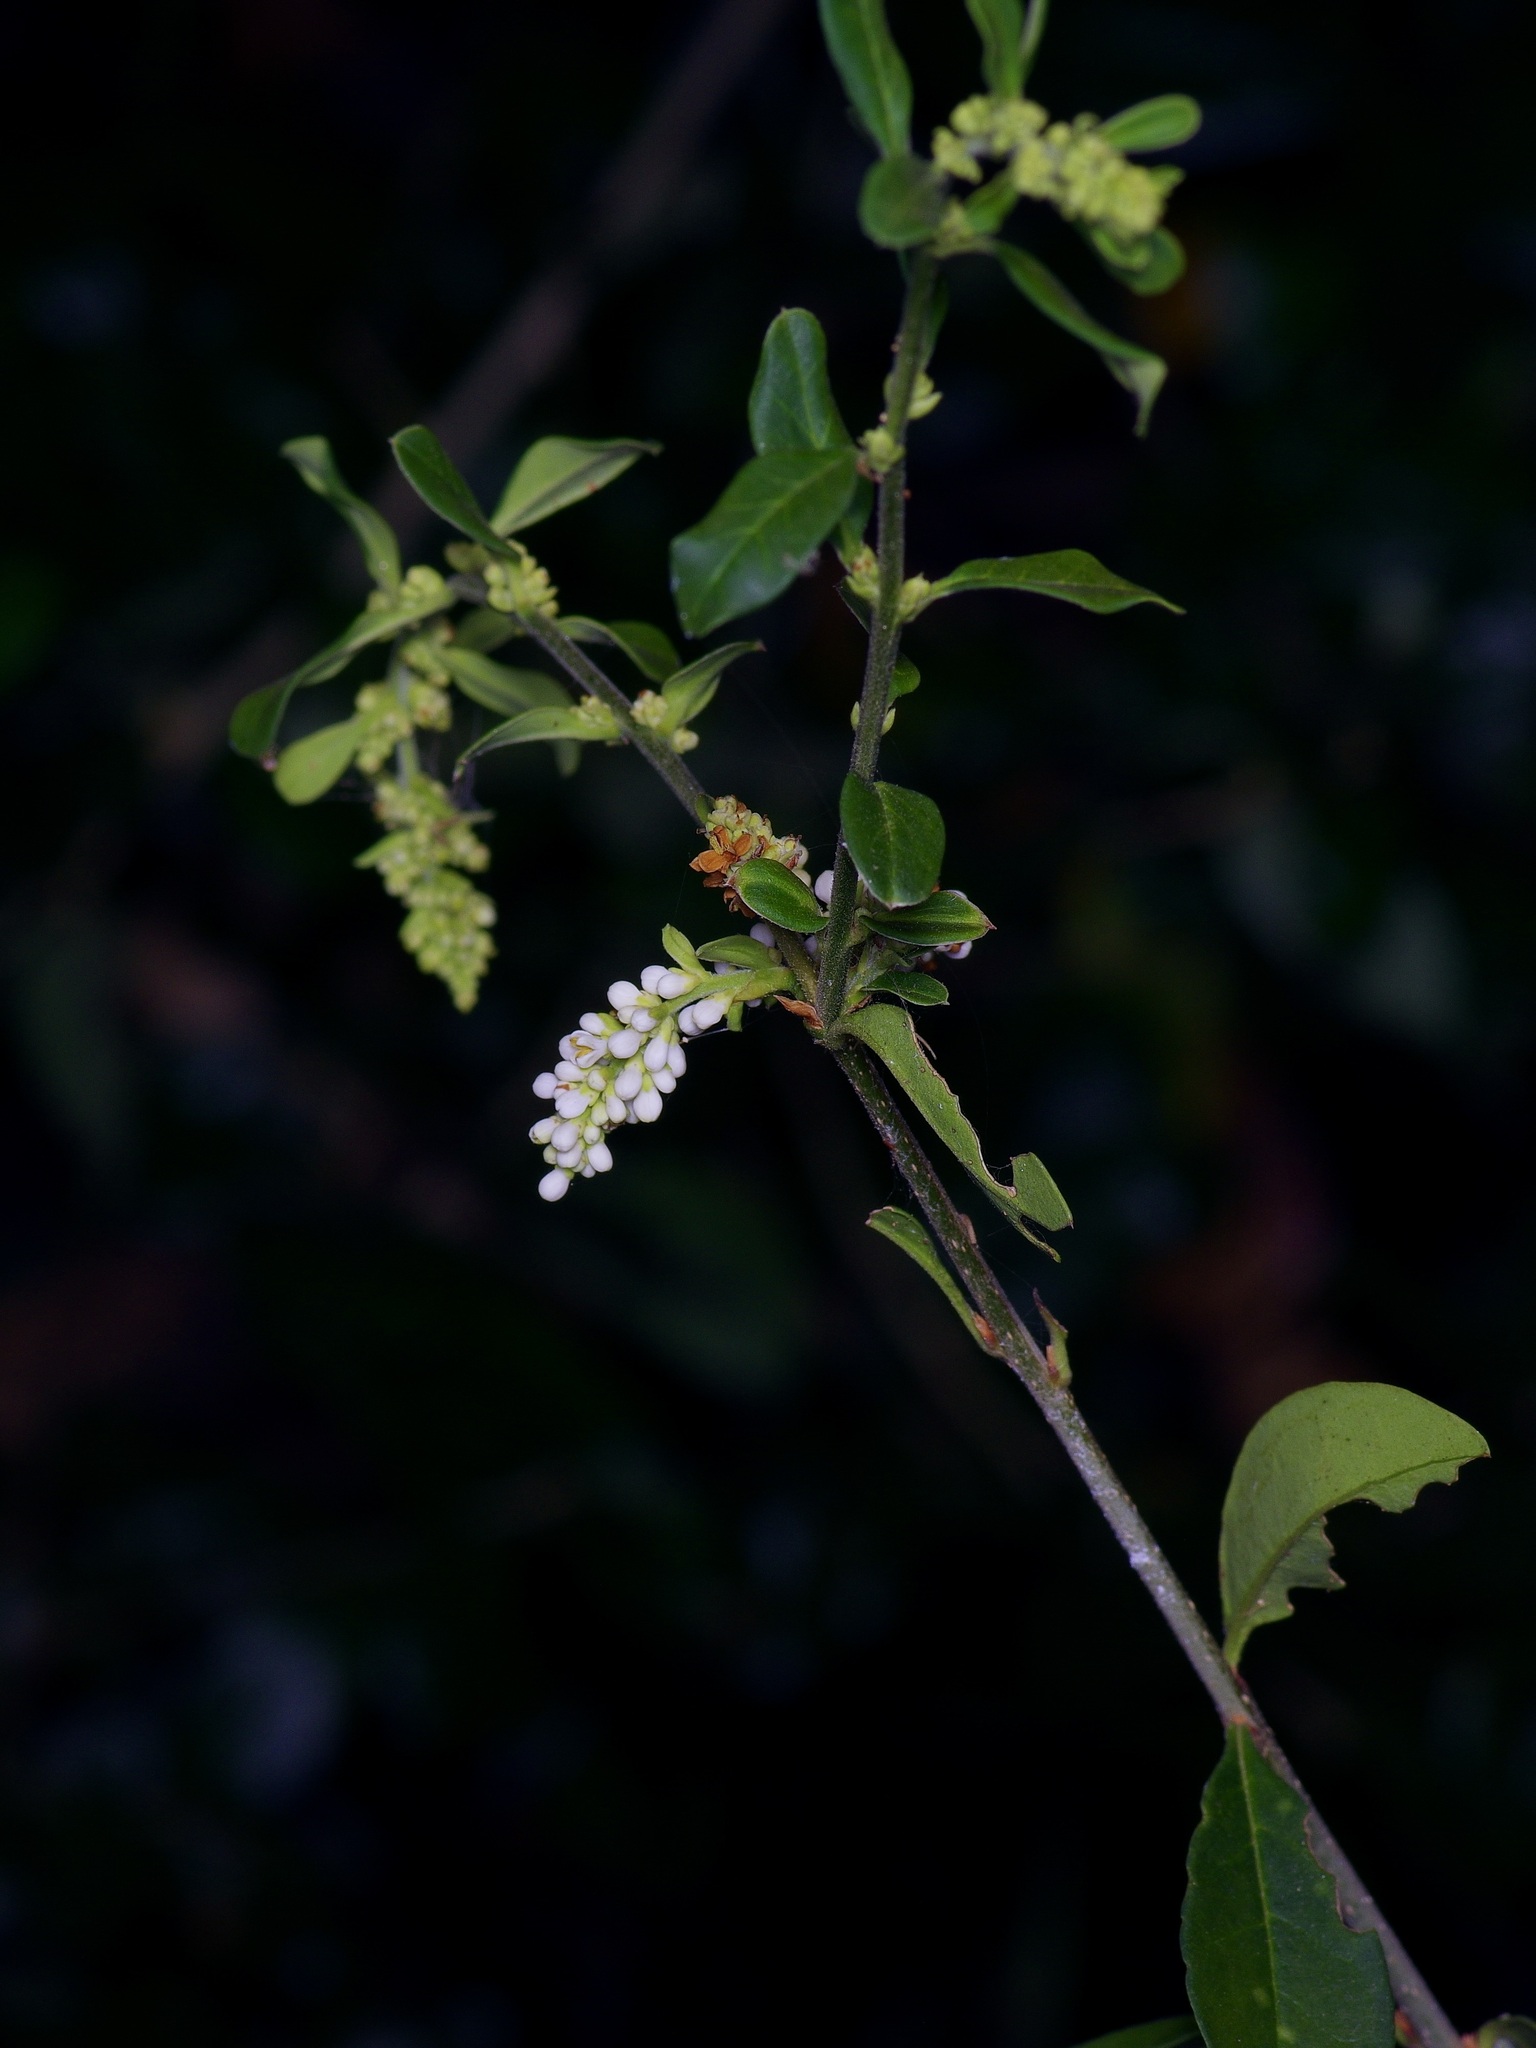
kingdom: Plantae
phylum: Tracheophyta
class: Magnoliopsida
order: Lamiales
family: Oleaceae
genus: Ligustrum
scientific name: Ligustrum quihoui
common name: Waxyleaf privet
